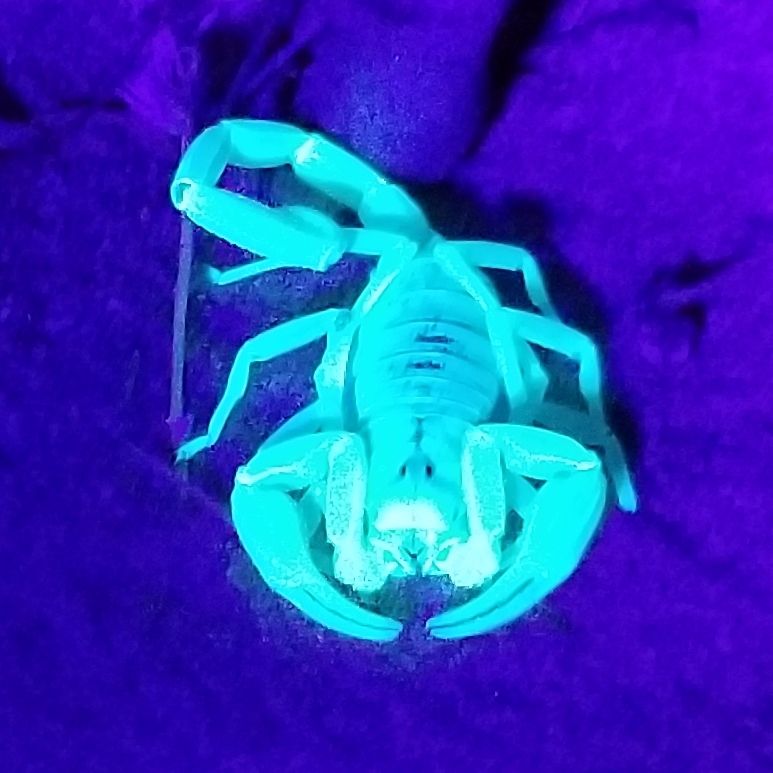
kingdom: Animalia
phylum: Arthropoda
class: Arachnida
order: Scorpiones
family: Vaejovidae
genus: Smeringurus
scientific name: Smeringurus mesaensis
